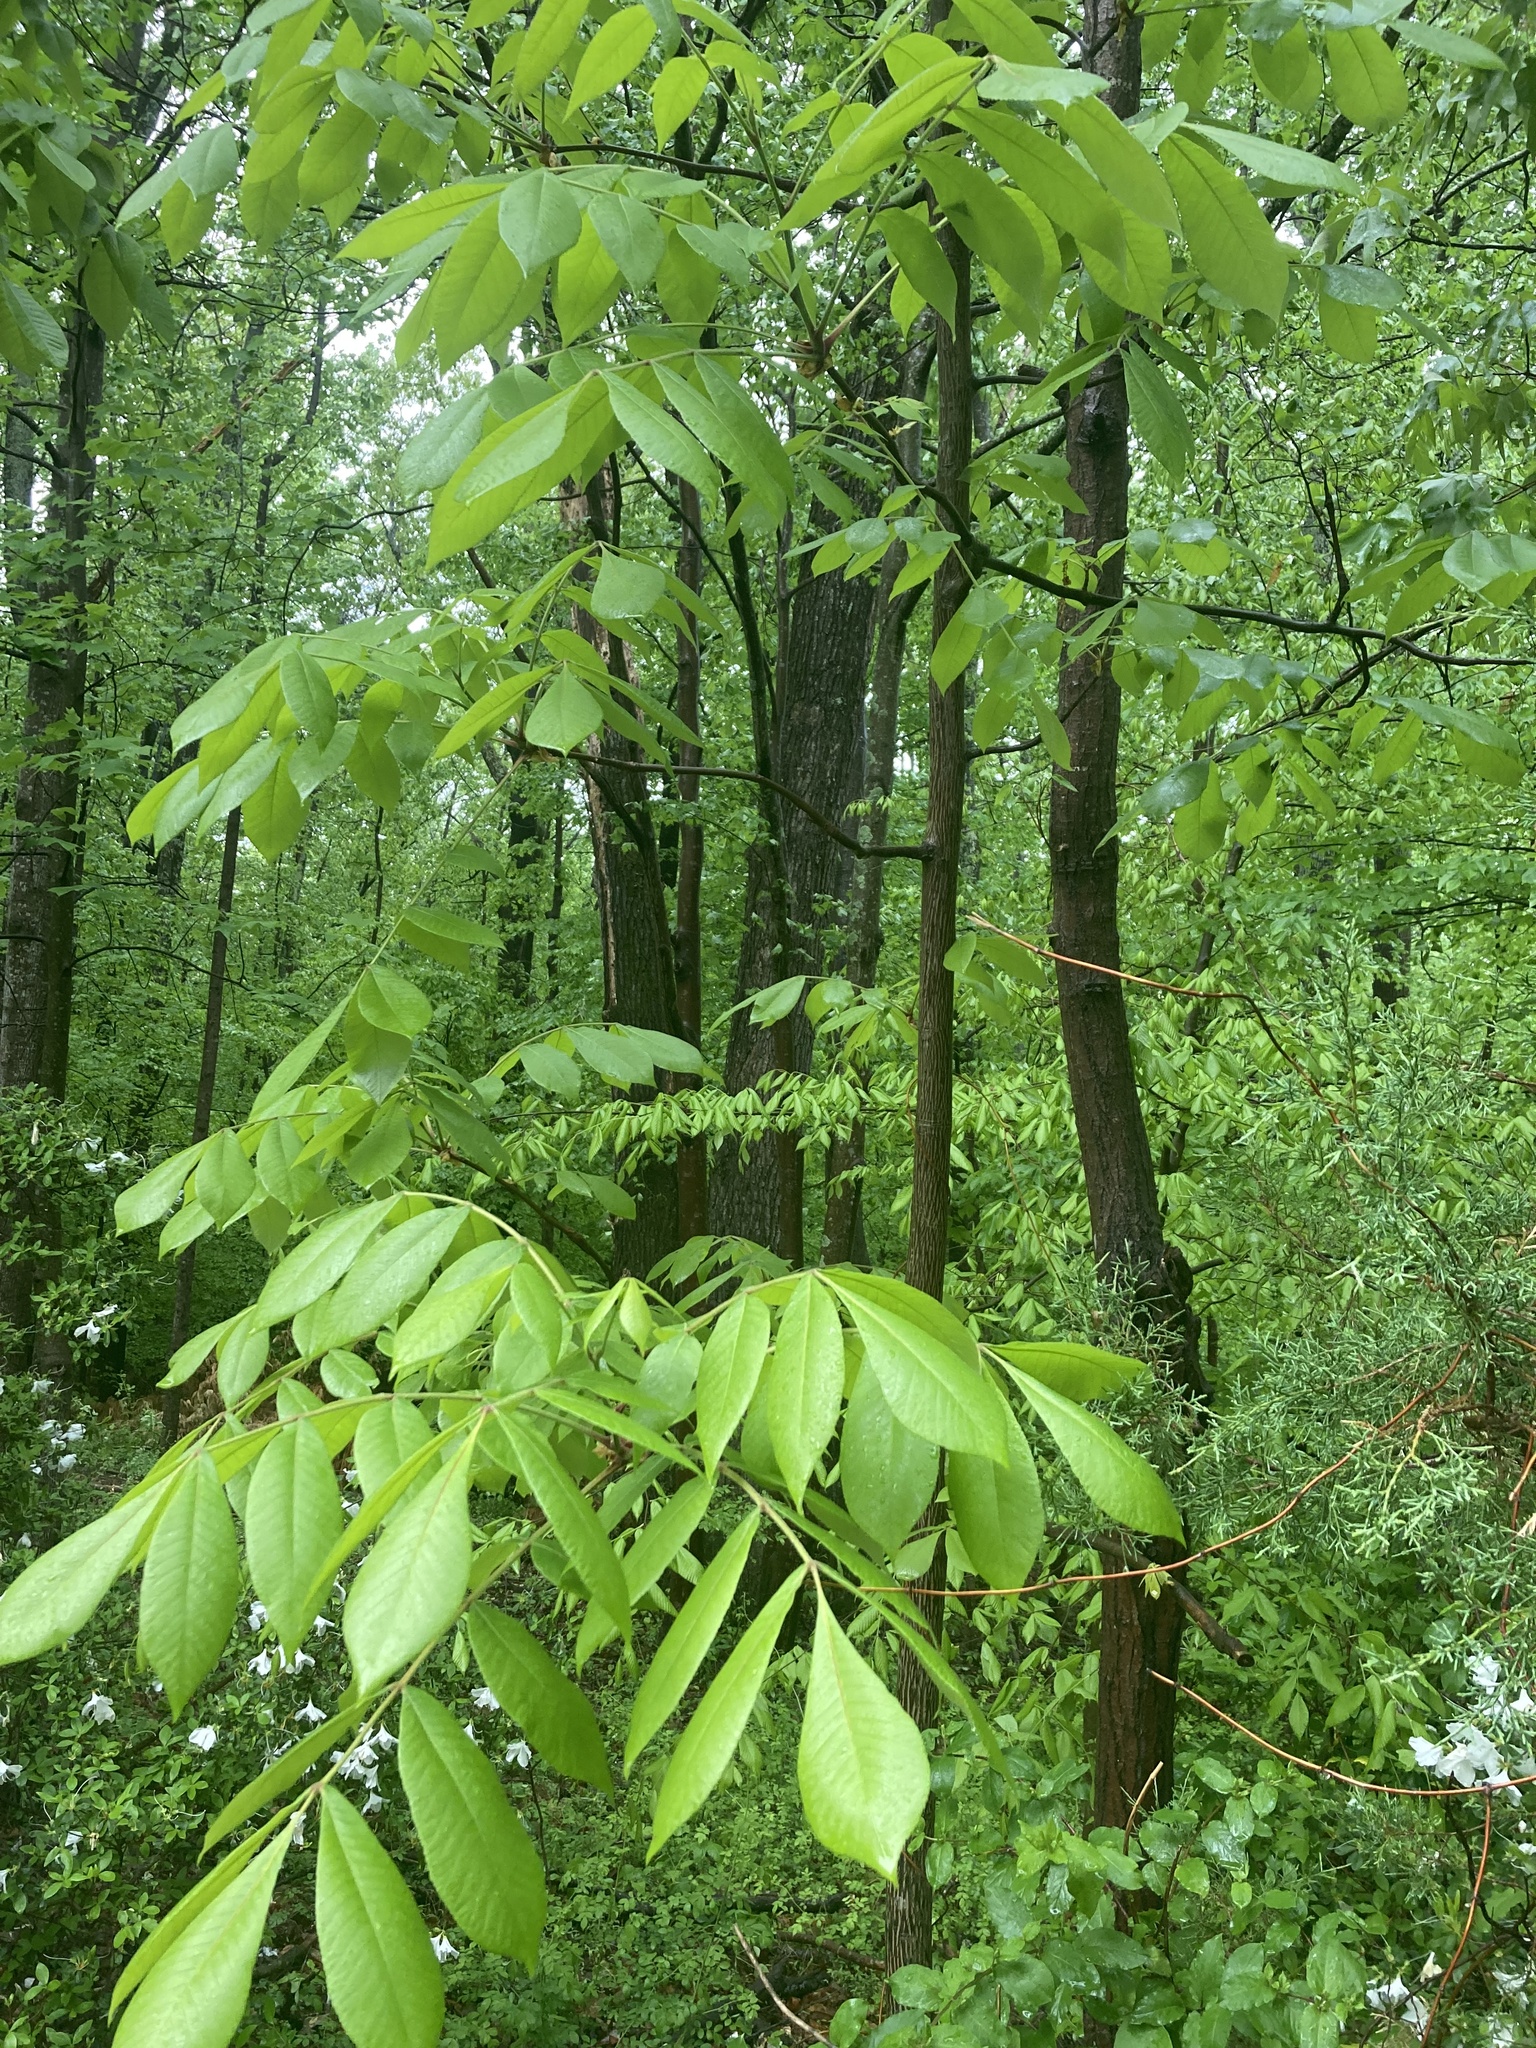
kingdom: Plantae
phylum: Tracheophyta
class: Magnoliopsida
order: Fagales
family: Juglandaceae
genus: Carya
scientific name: Carya alba
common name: Mockernut hickory
